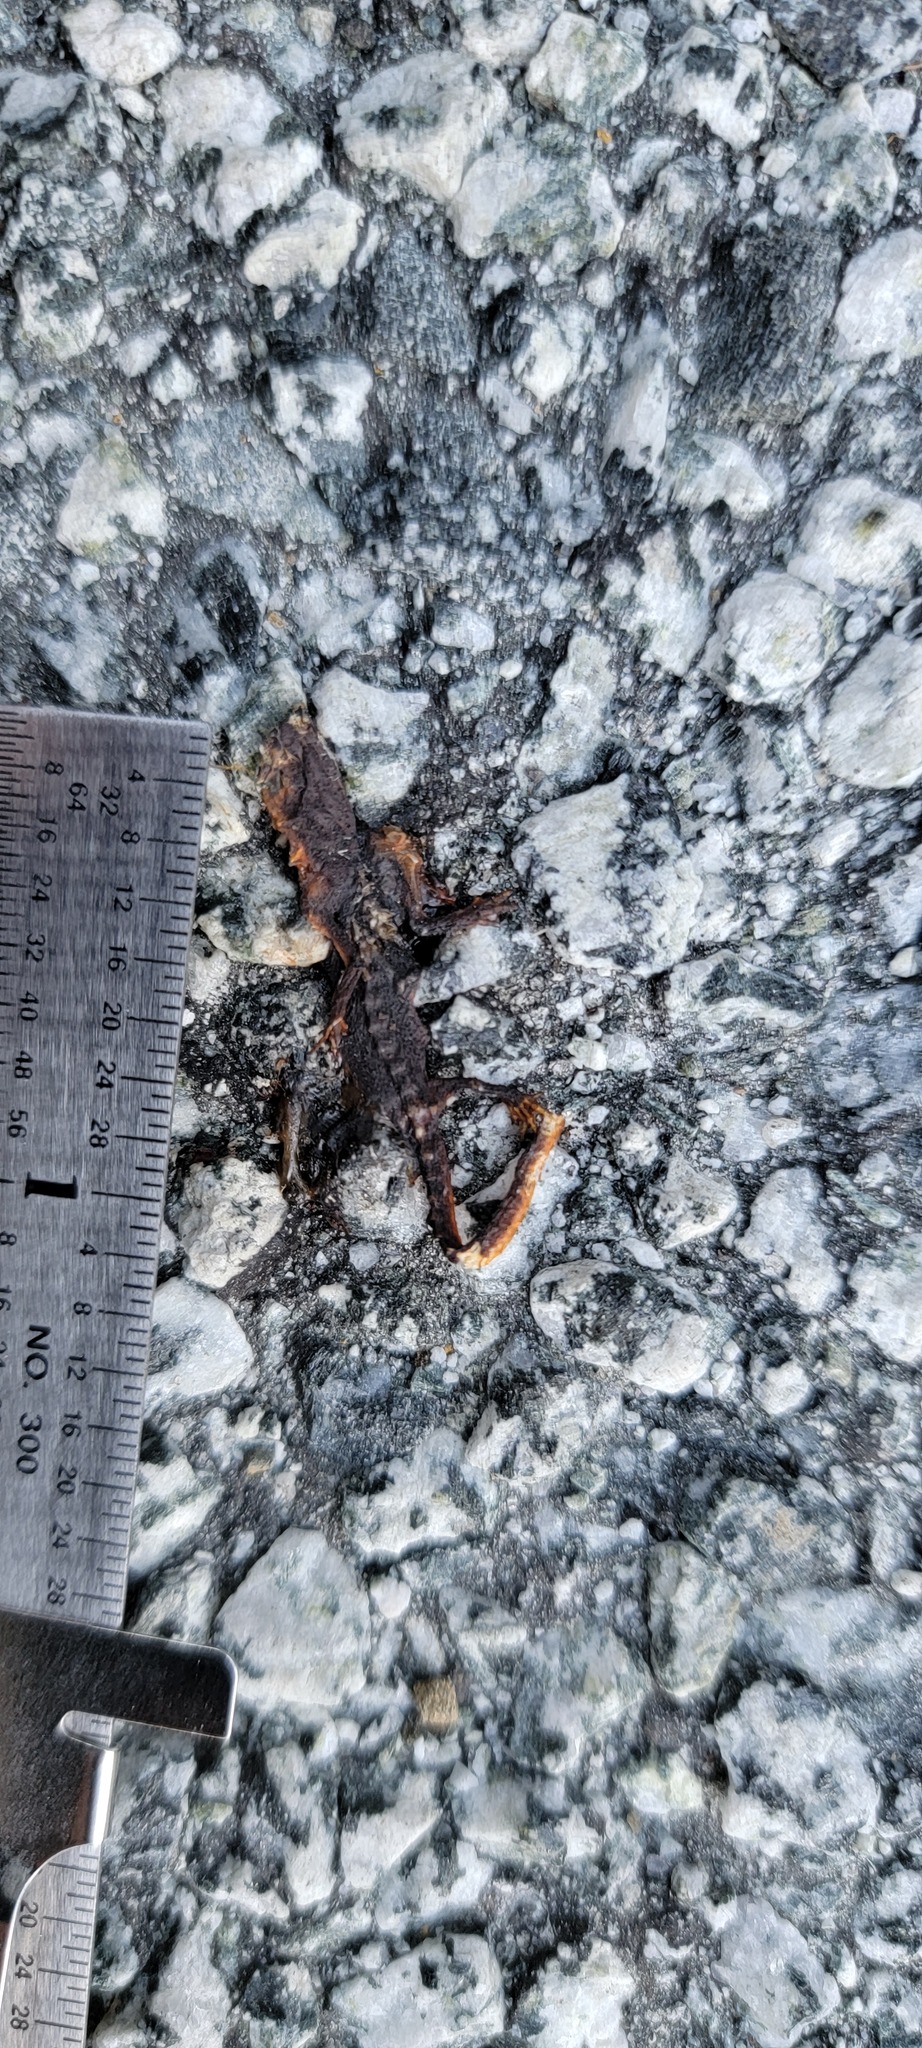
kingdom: Animalia
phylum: Chordata
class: Amphibia
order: Caudata
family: Salamandridae
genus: Taricha
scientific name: Taricha
